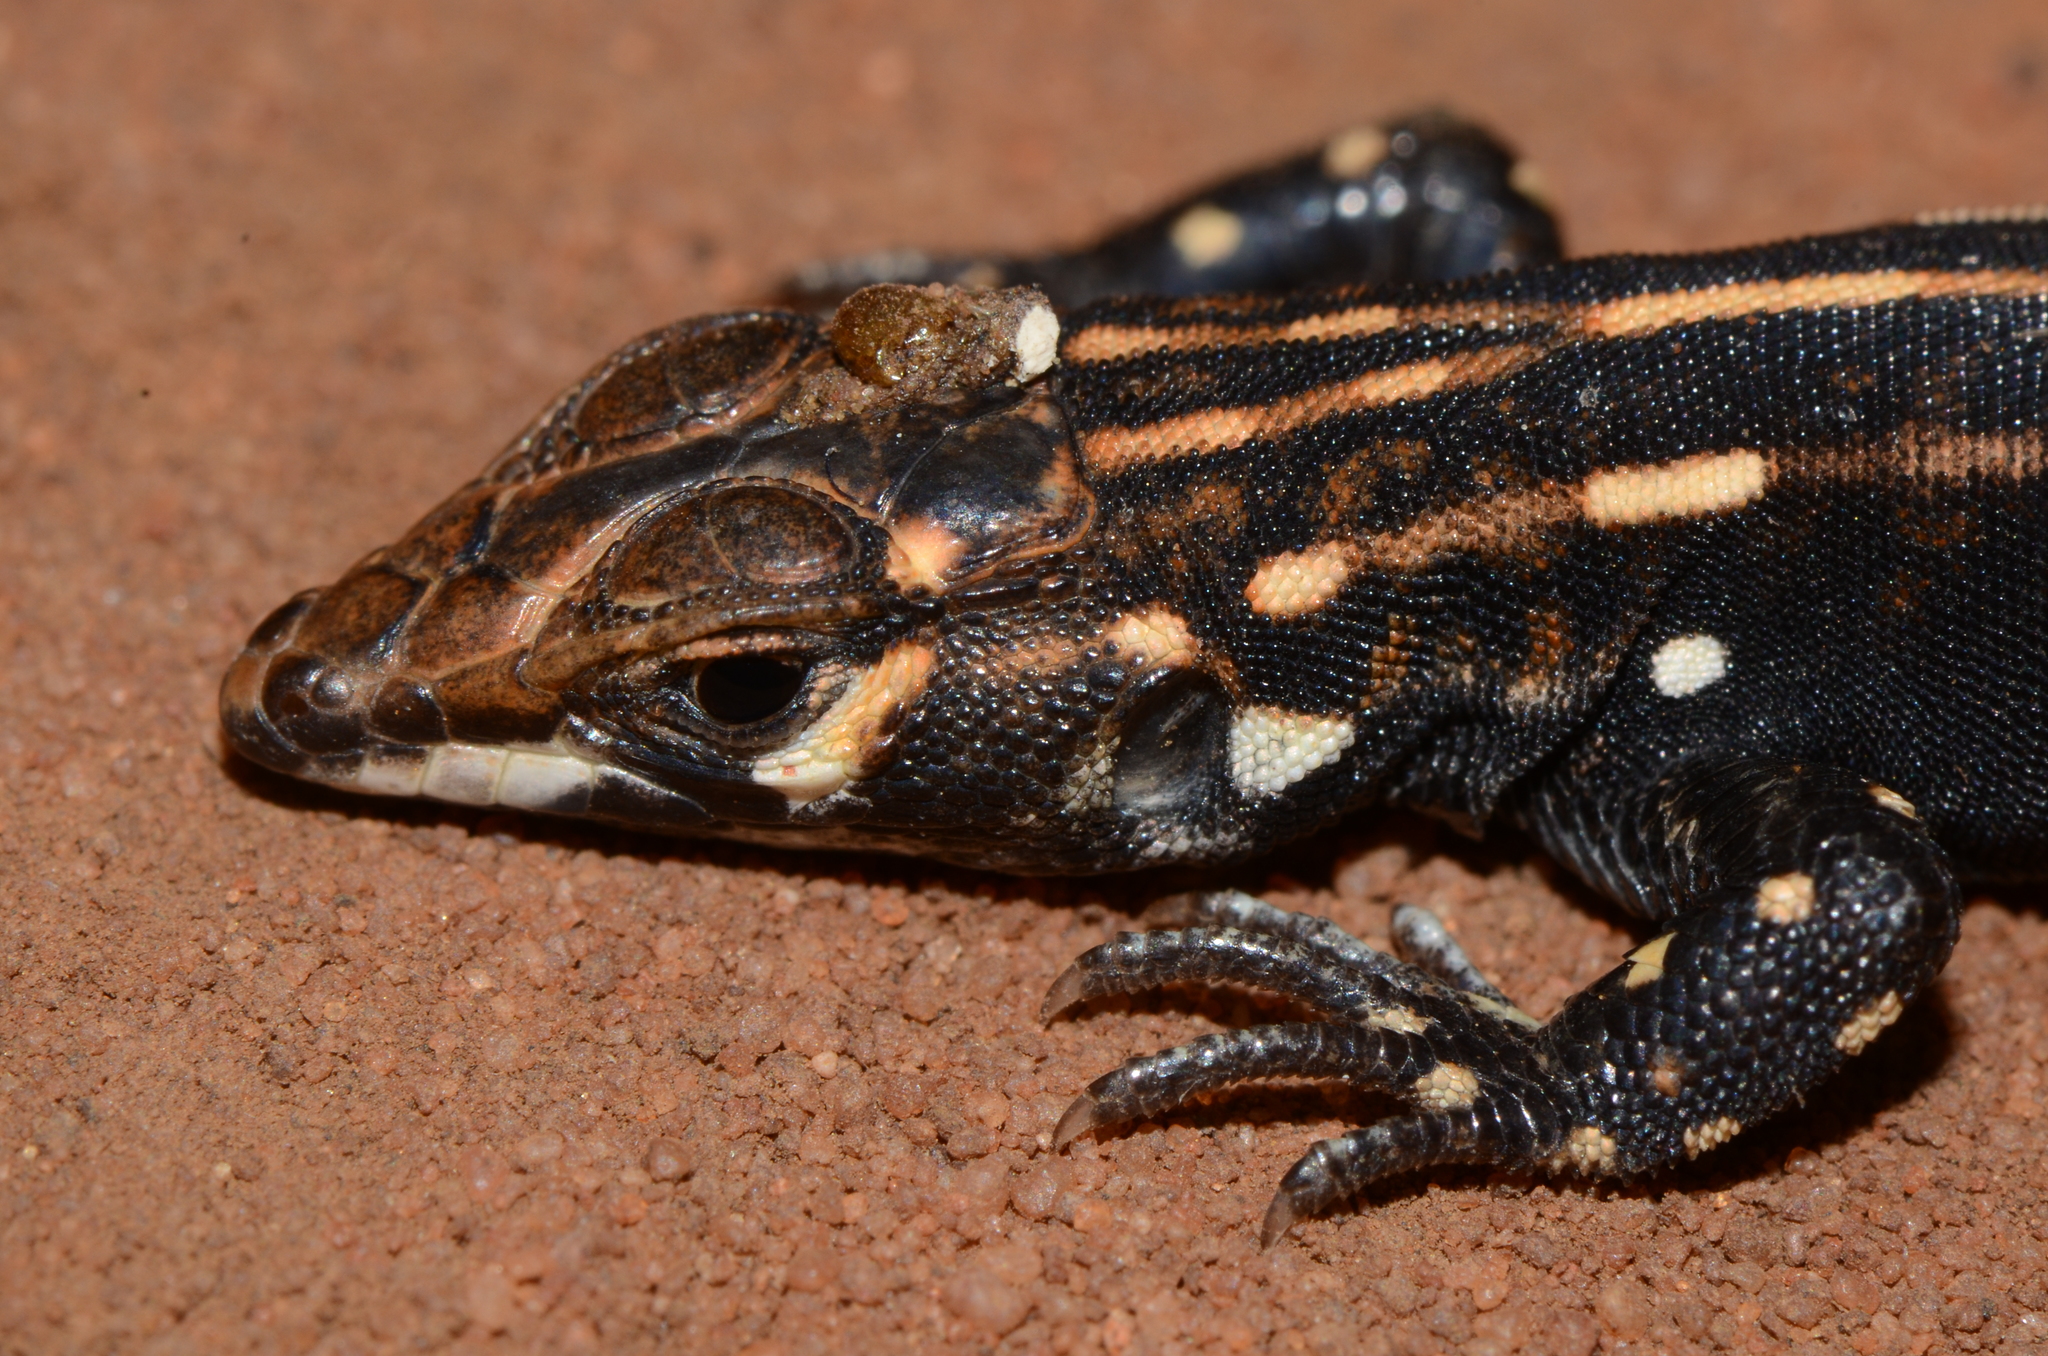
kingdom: Animalia
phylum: Chordata
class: Squamata
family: Lacertidae
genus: Heliobolus
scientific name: Heliobolus lugubris
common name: Bushveld lizard
